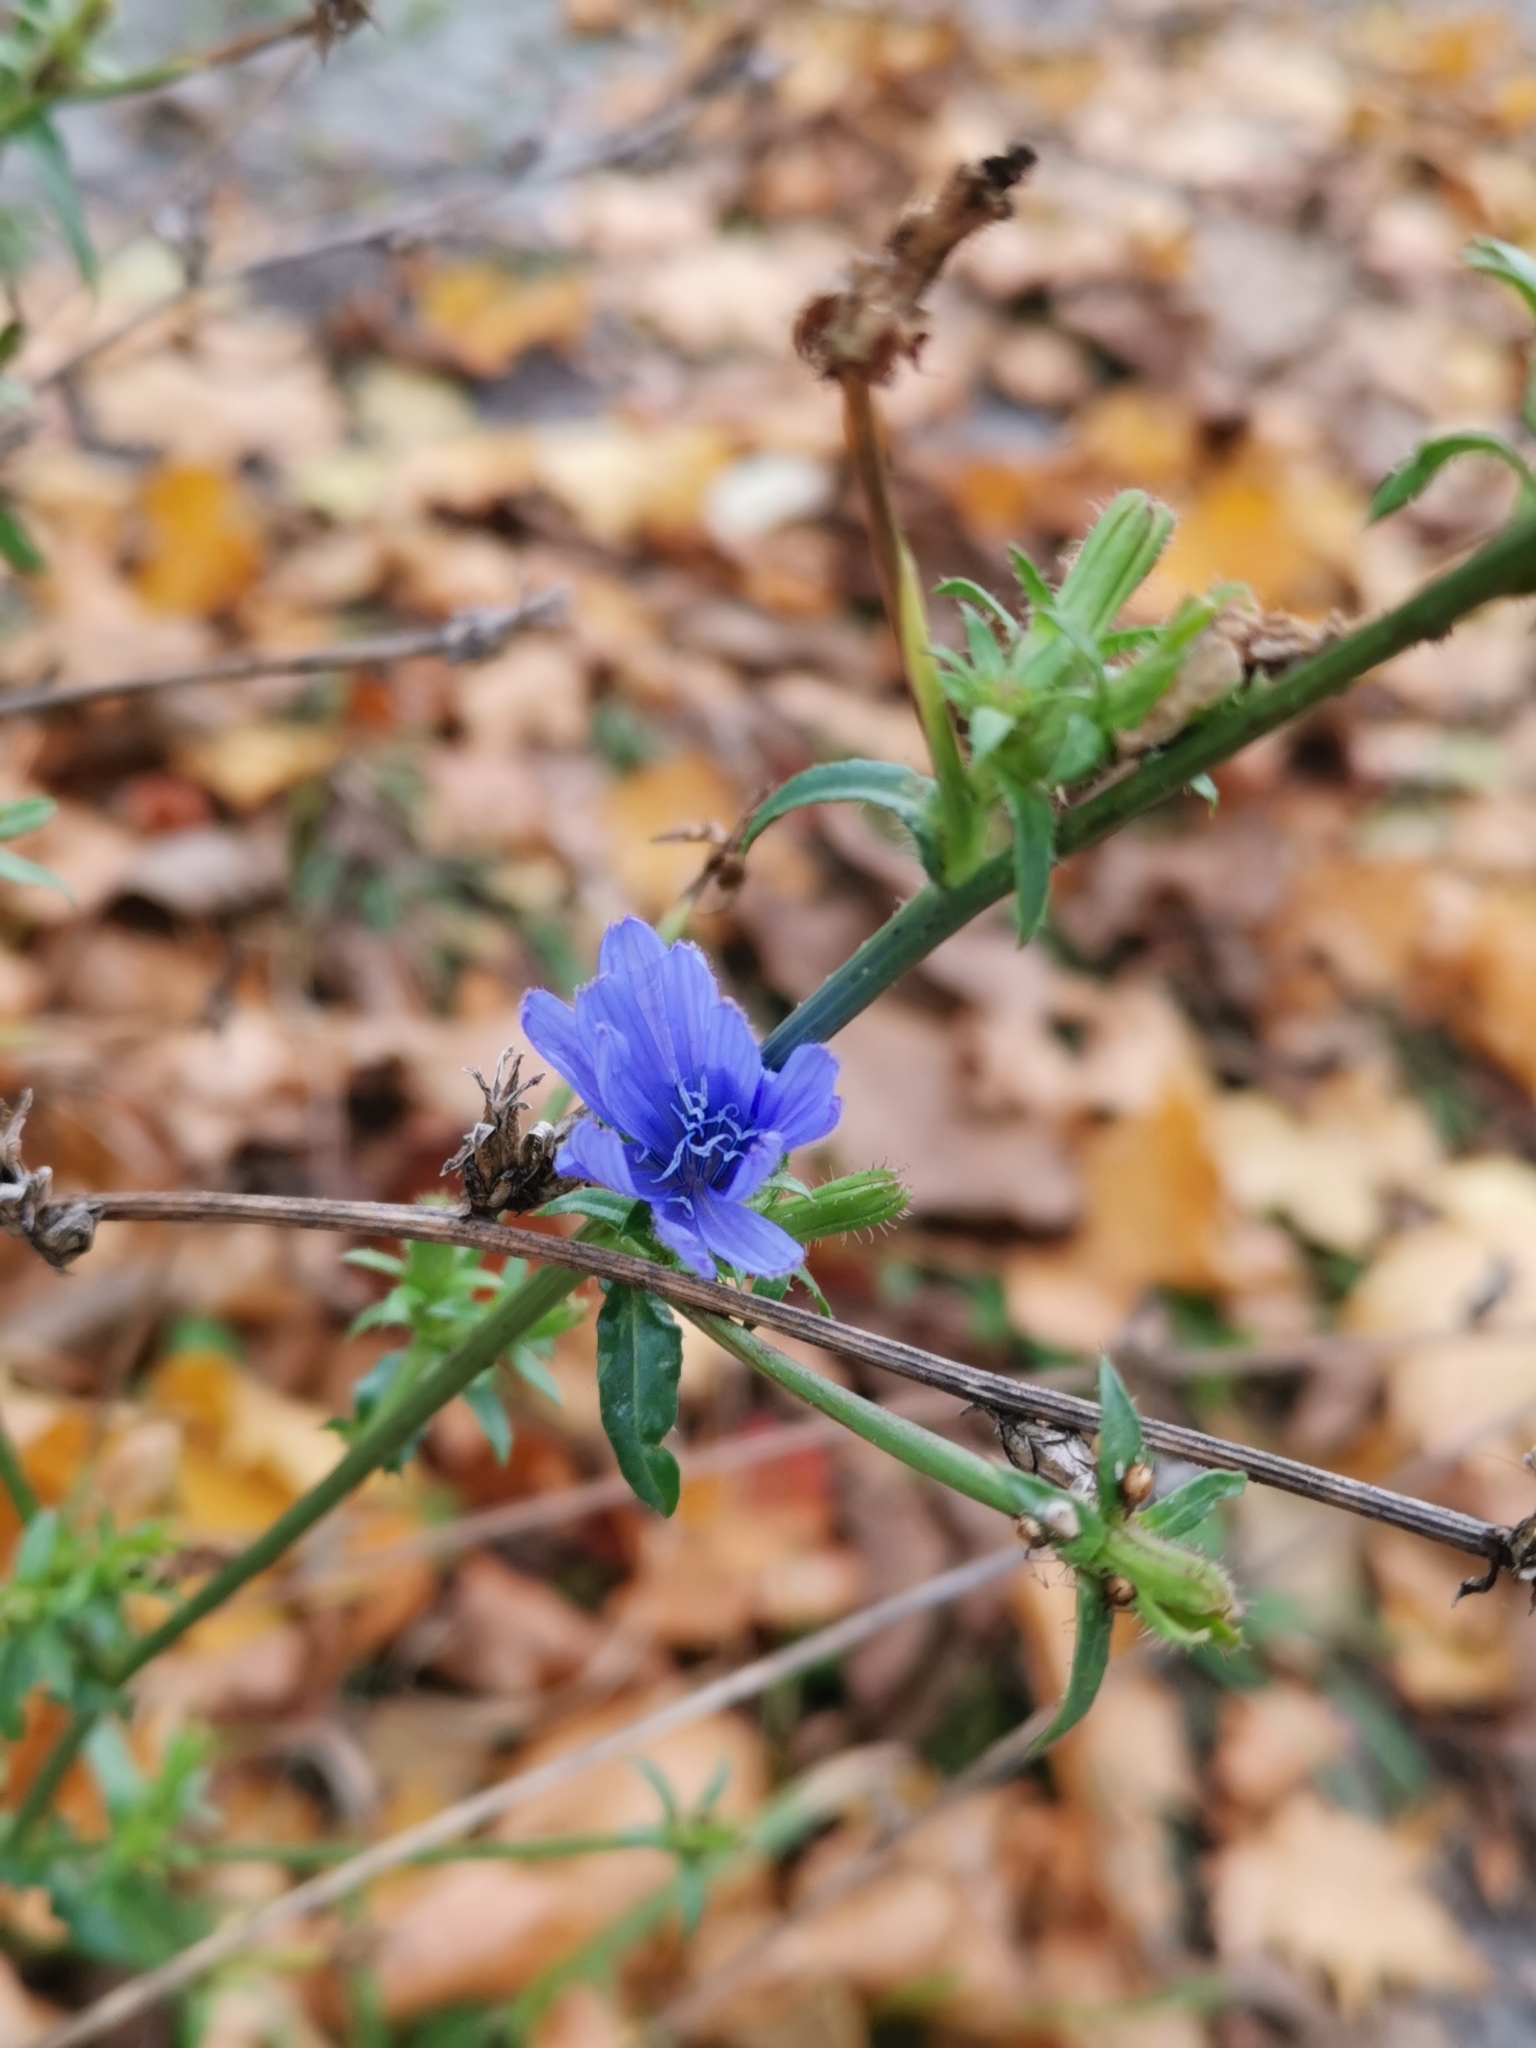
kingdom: Plantae
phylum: Tracheophyta
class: Magnoliopsida
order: Asterales
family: Asteraceae
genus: Cichorium
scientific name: Cichorium intybus
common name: Chicory
